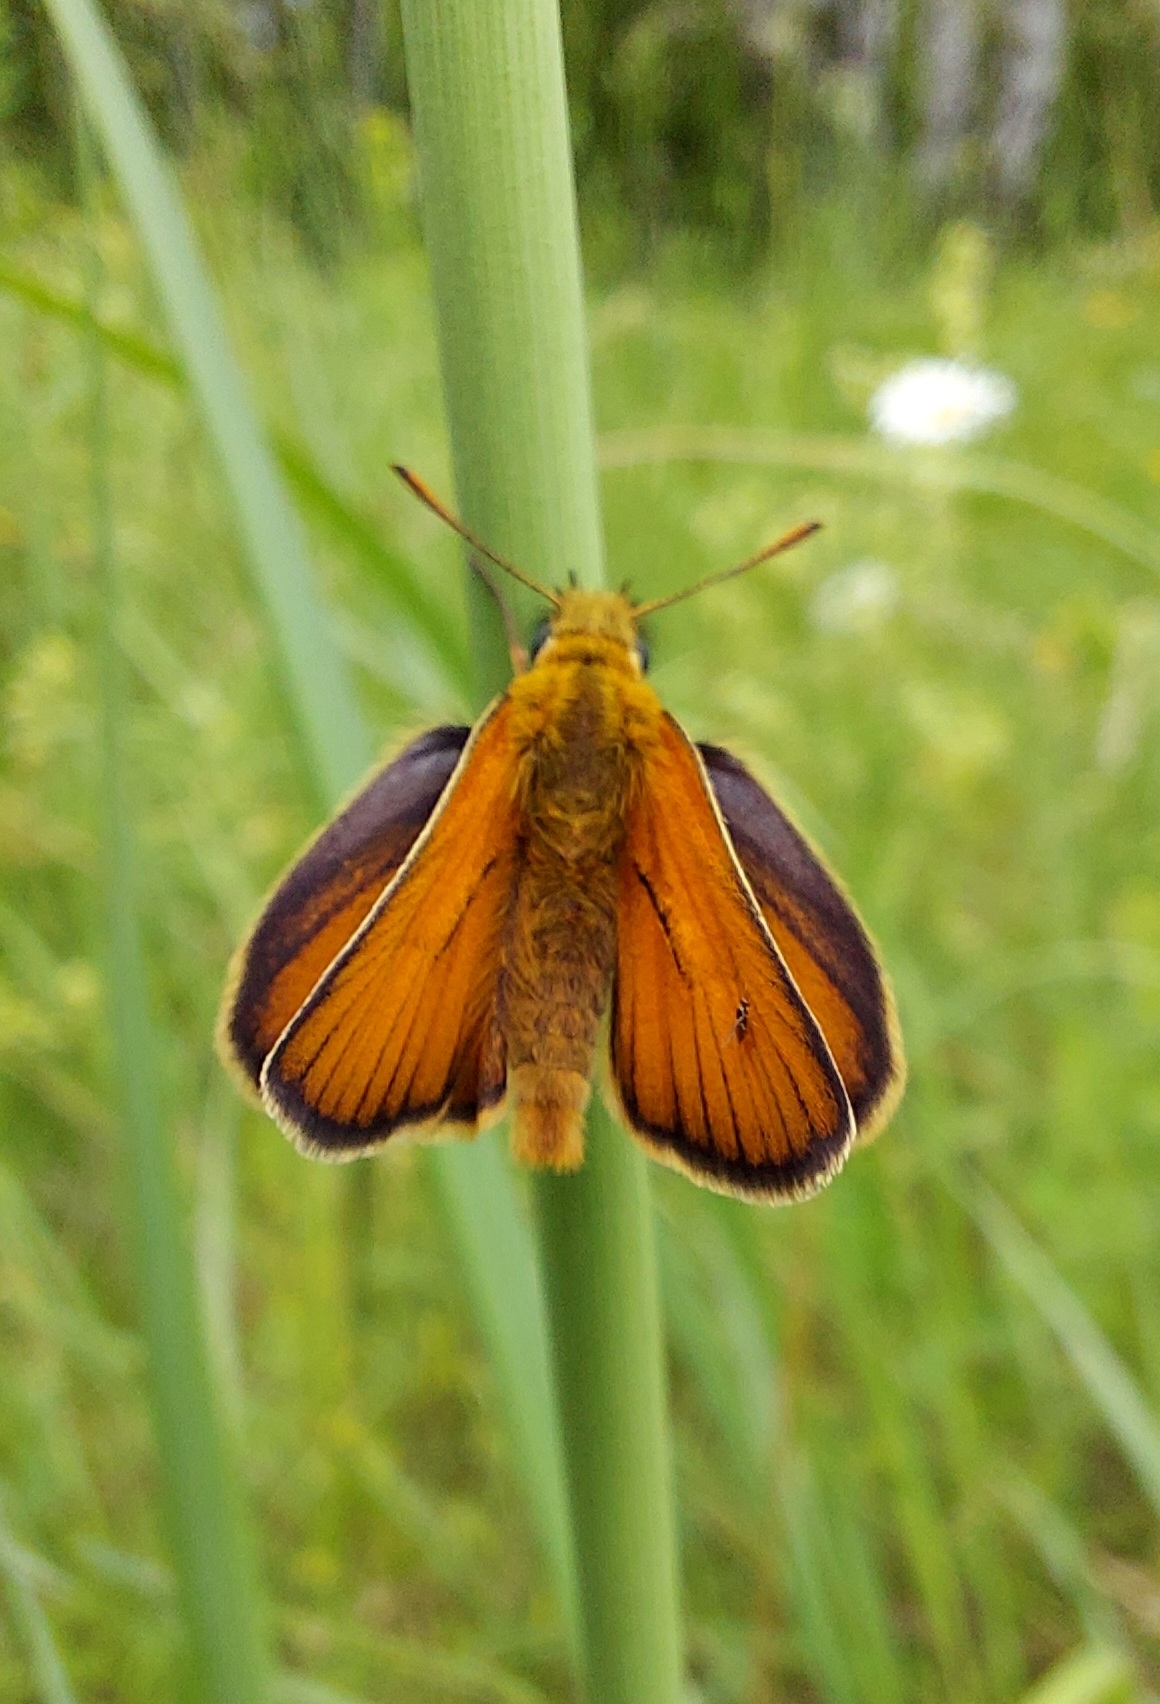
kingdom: Animalia
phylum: Arthropoda
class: Insecta
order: Lepidoptera
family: Hesperiidae
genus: Thymelicus
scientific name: Thymelicus sylvestris
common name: Small skipper
